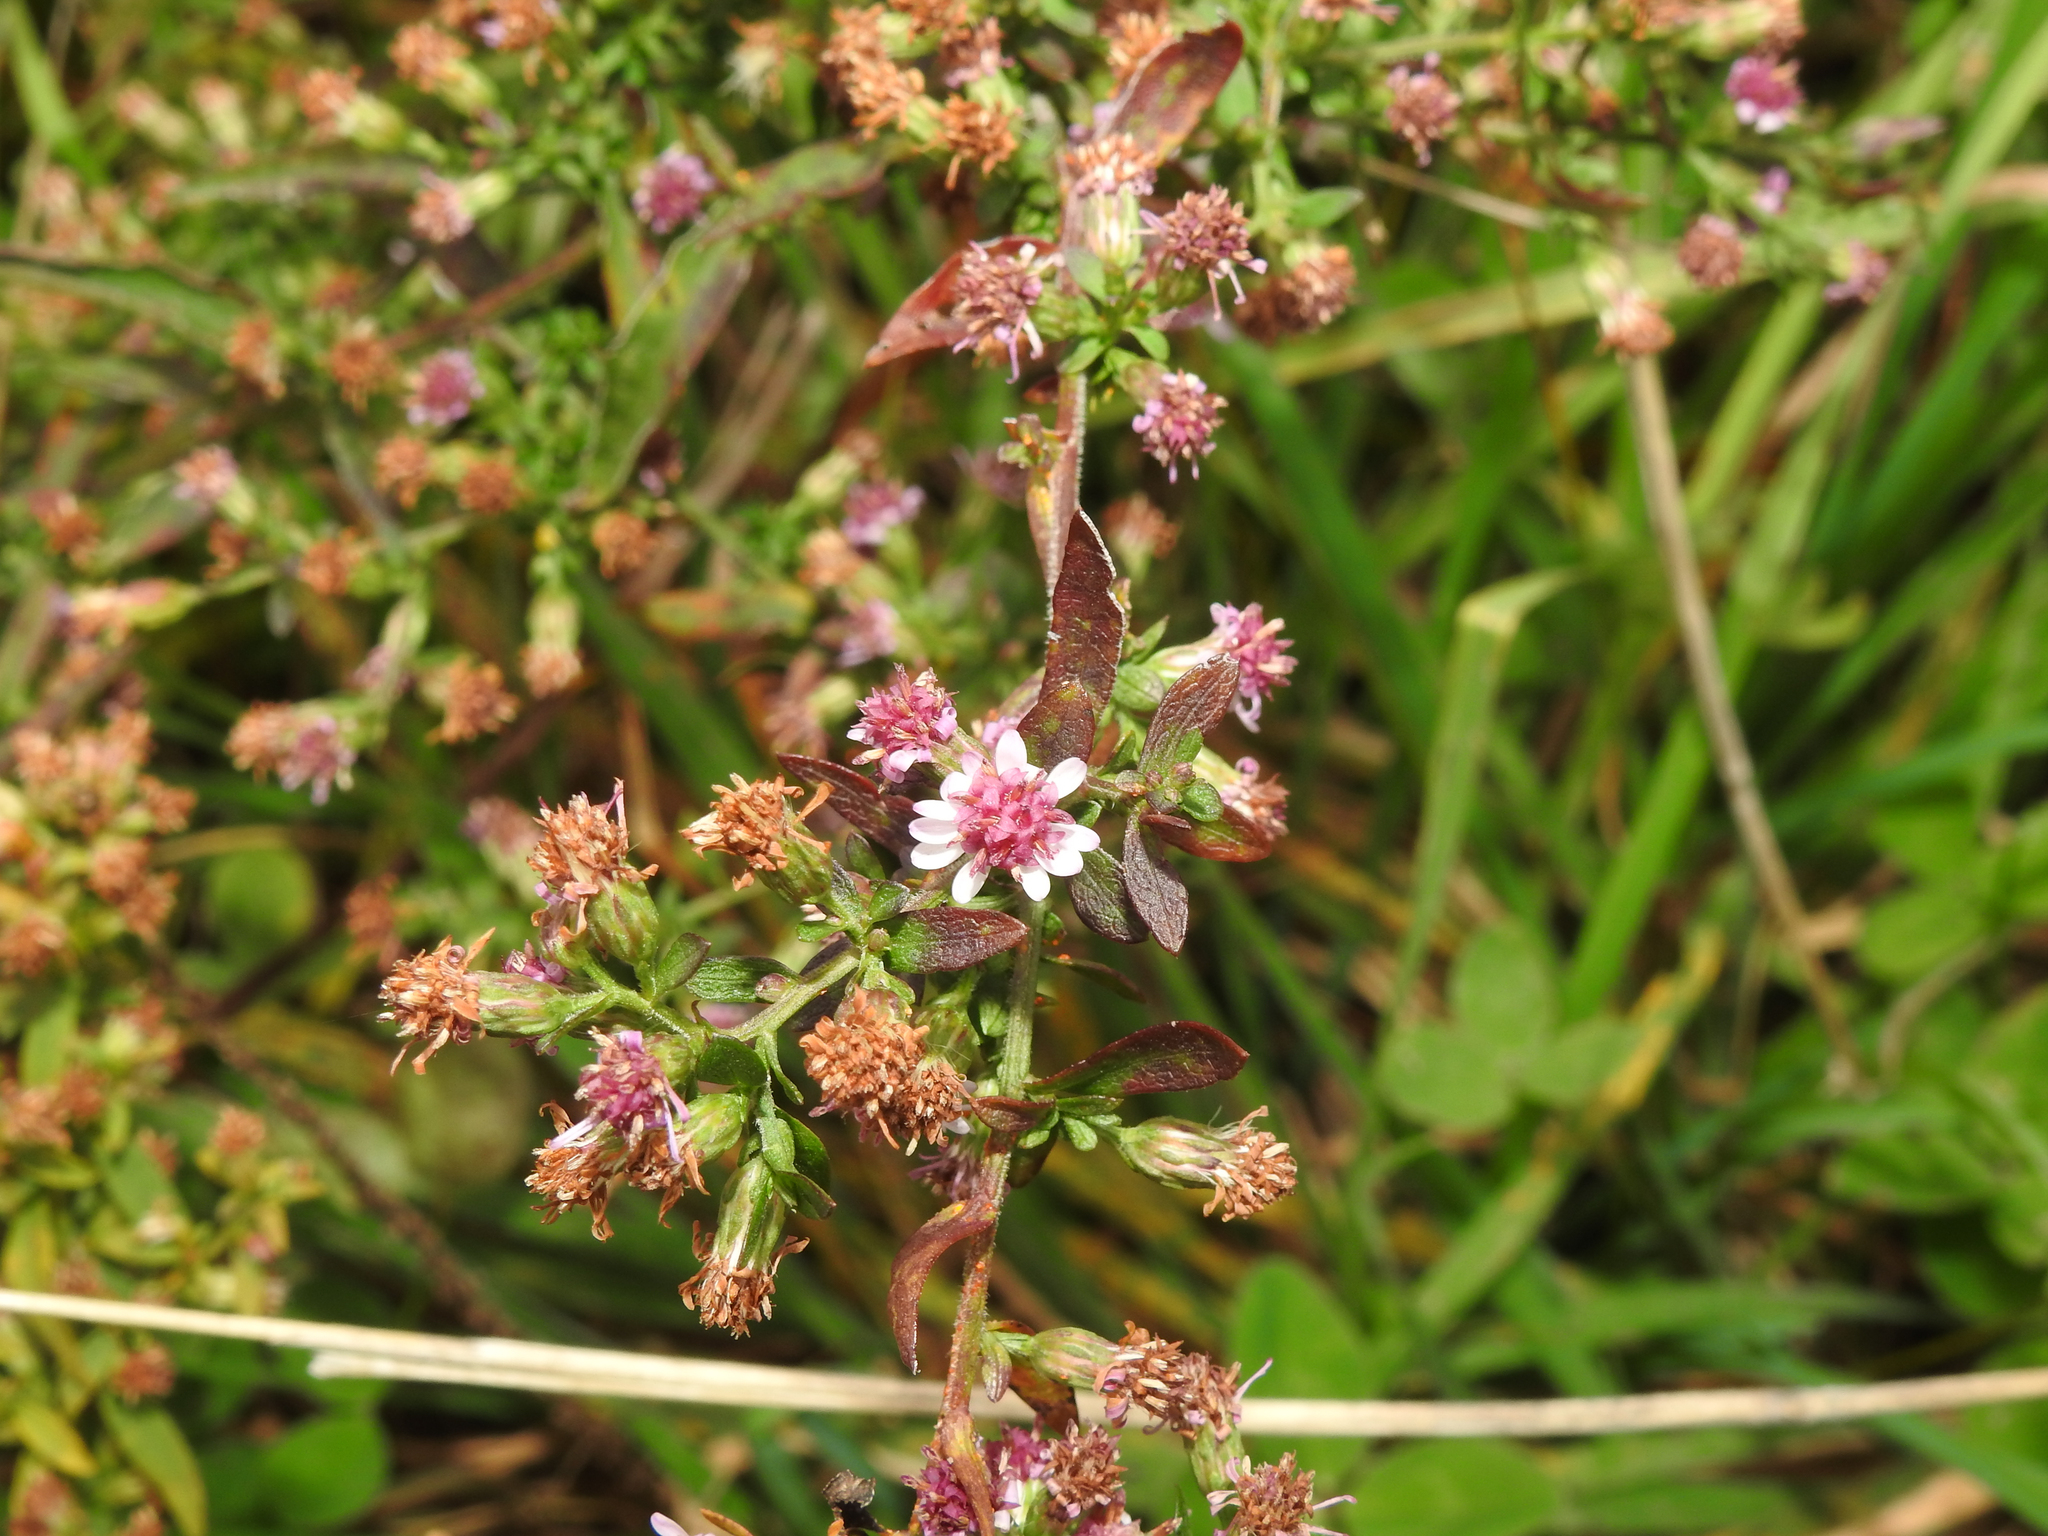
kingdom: Plantae
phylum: Tracheophyta
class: Magnoliopsida
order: Asterales
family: Asteraceae
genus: Symphyotrichum
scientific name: Symphyotrichum lateriflorum
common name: Calico aster
